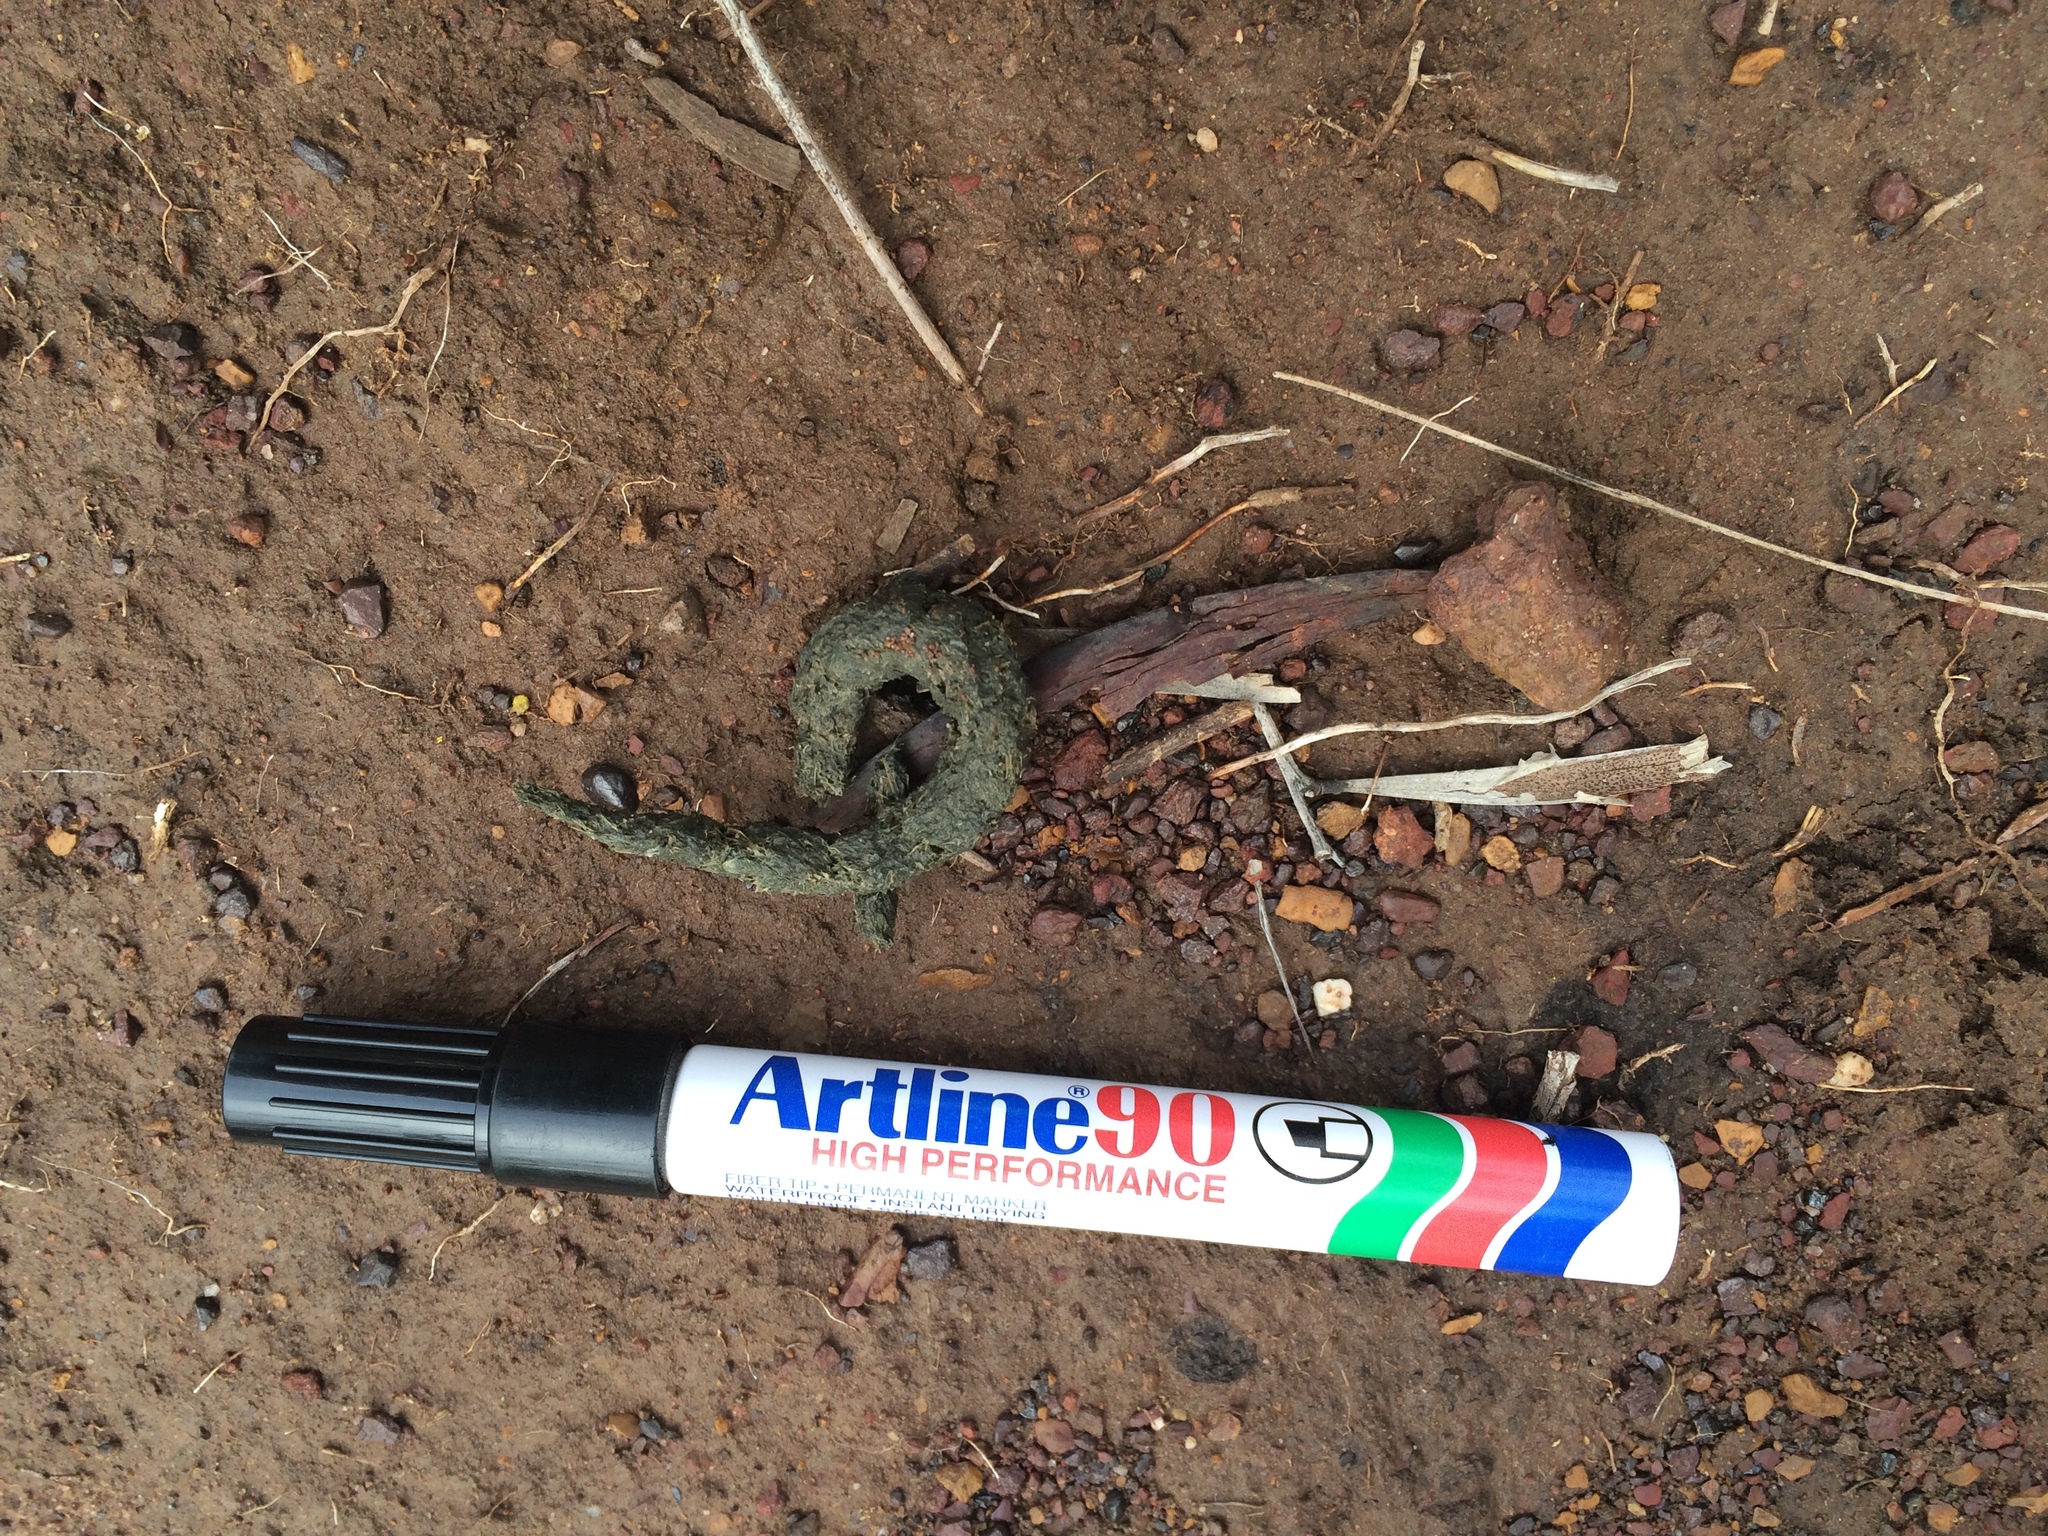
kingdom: Animalia
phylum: Chordata
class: Mammalia
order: Carnivora
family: Felidae
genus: Felis
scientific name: Felis catus
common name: Domestic cat
